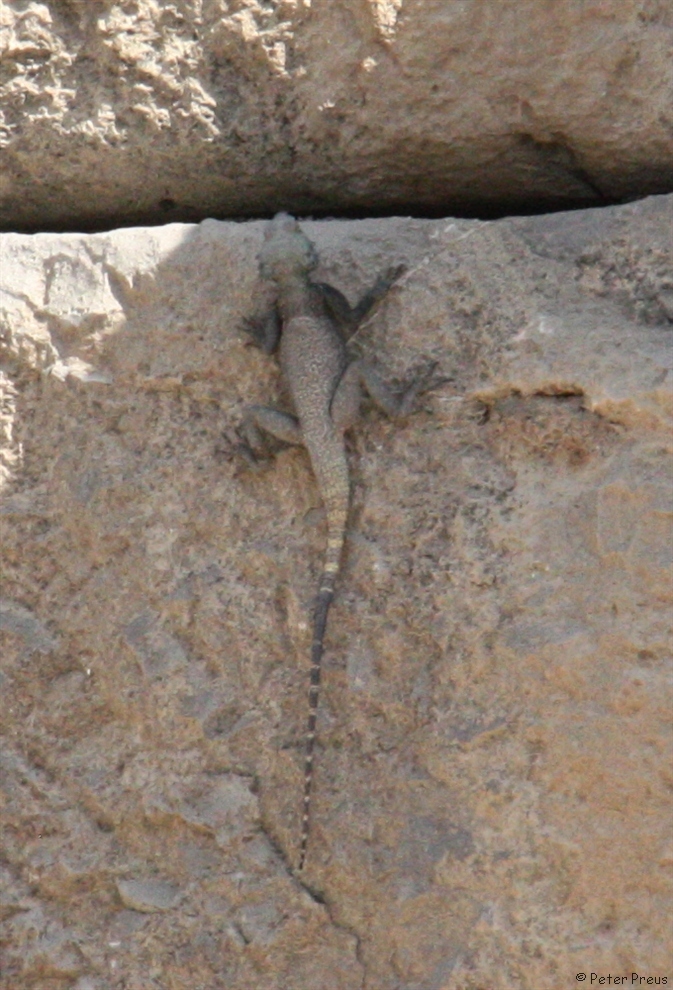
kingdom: Animalia
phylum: Chordata
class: Squamata
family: Agamidae
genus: Laudakia
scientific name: Laudakia nupta
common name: Large-headed rock agama
